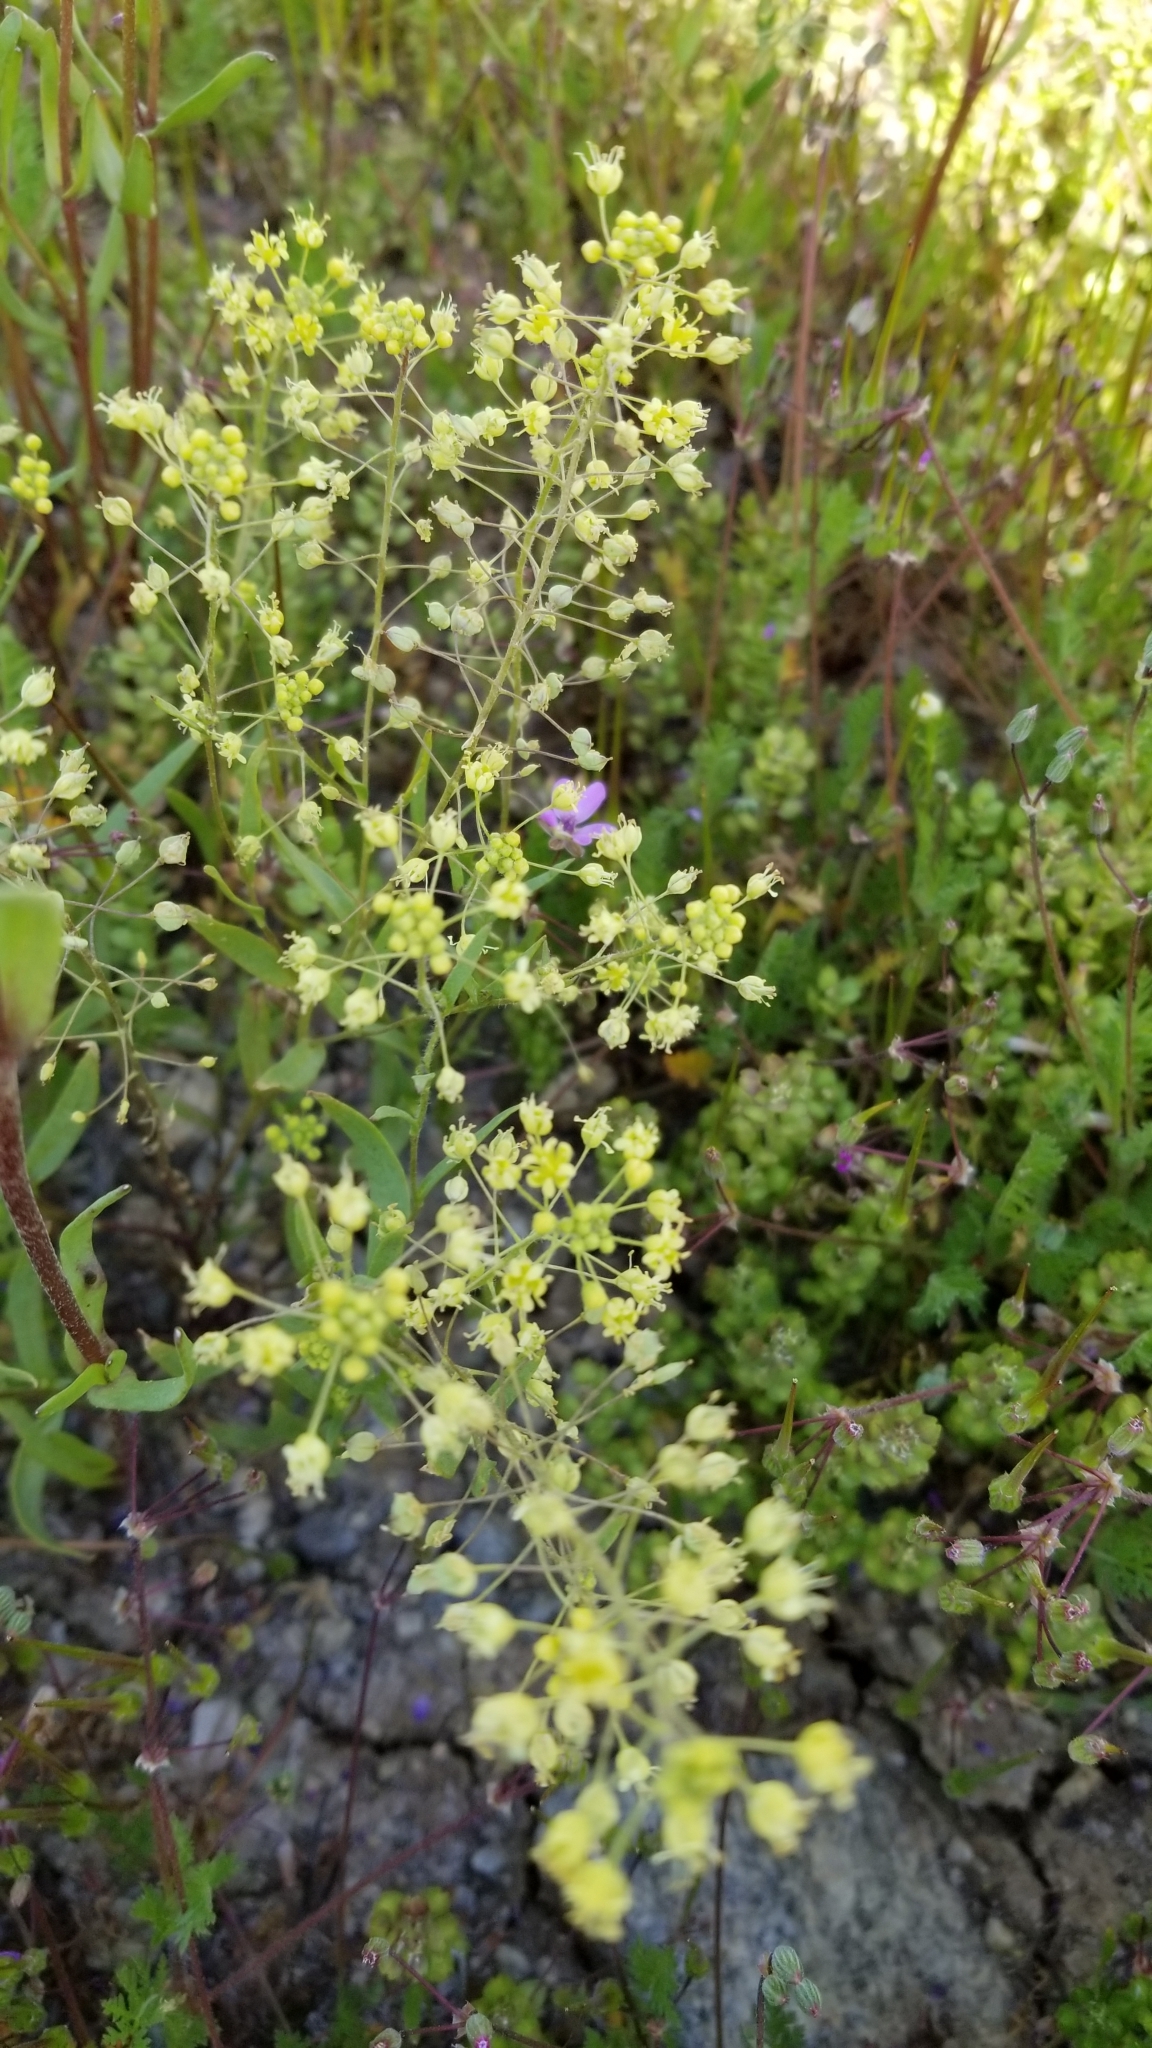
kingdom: Plantae
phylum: Tracheophyta
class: Magnoliopsida
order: Brassicales
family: Brassicaceae
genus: Lepidium
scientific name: Lepidium jaredii
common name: Jared's peppergrass
